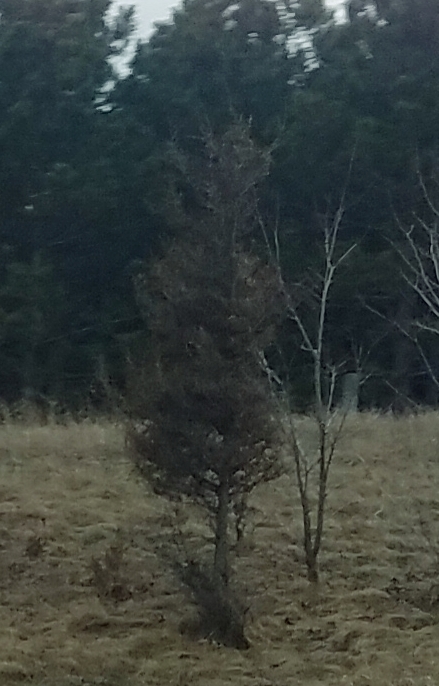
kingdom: Plantae
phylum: Tracheophyta
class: Pinopsida
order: Pinales
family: Cupressaceae
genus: Juniperus
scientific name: Juniperus virginiana
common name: Red juniper
